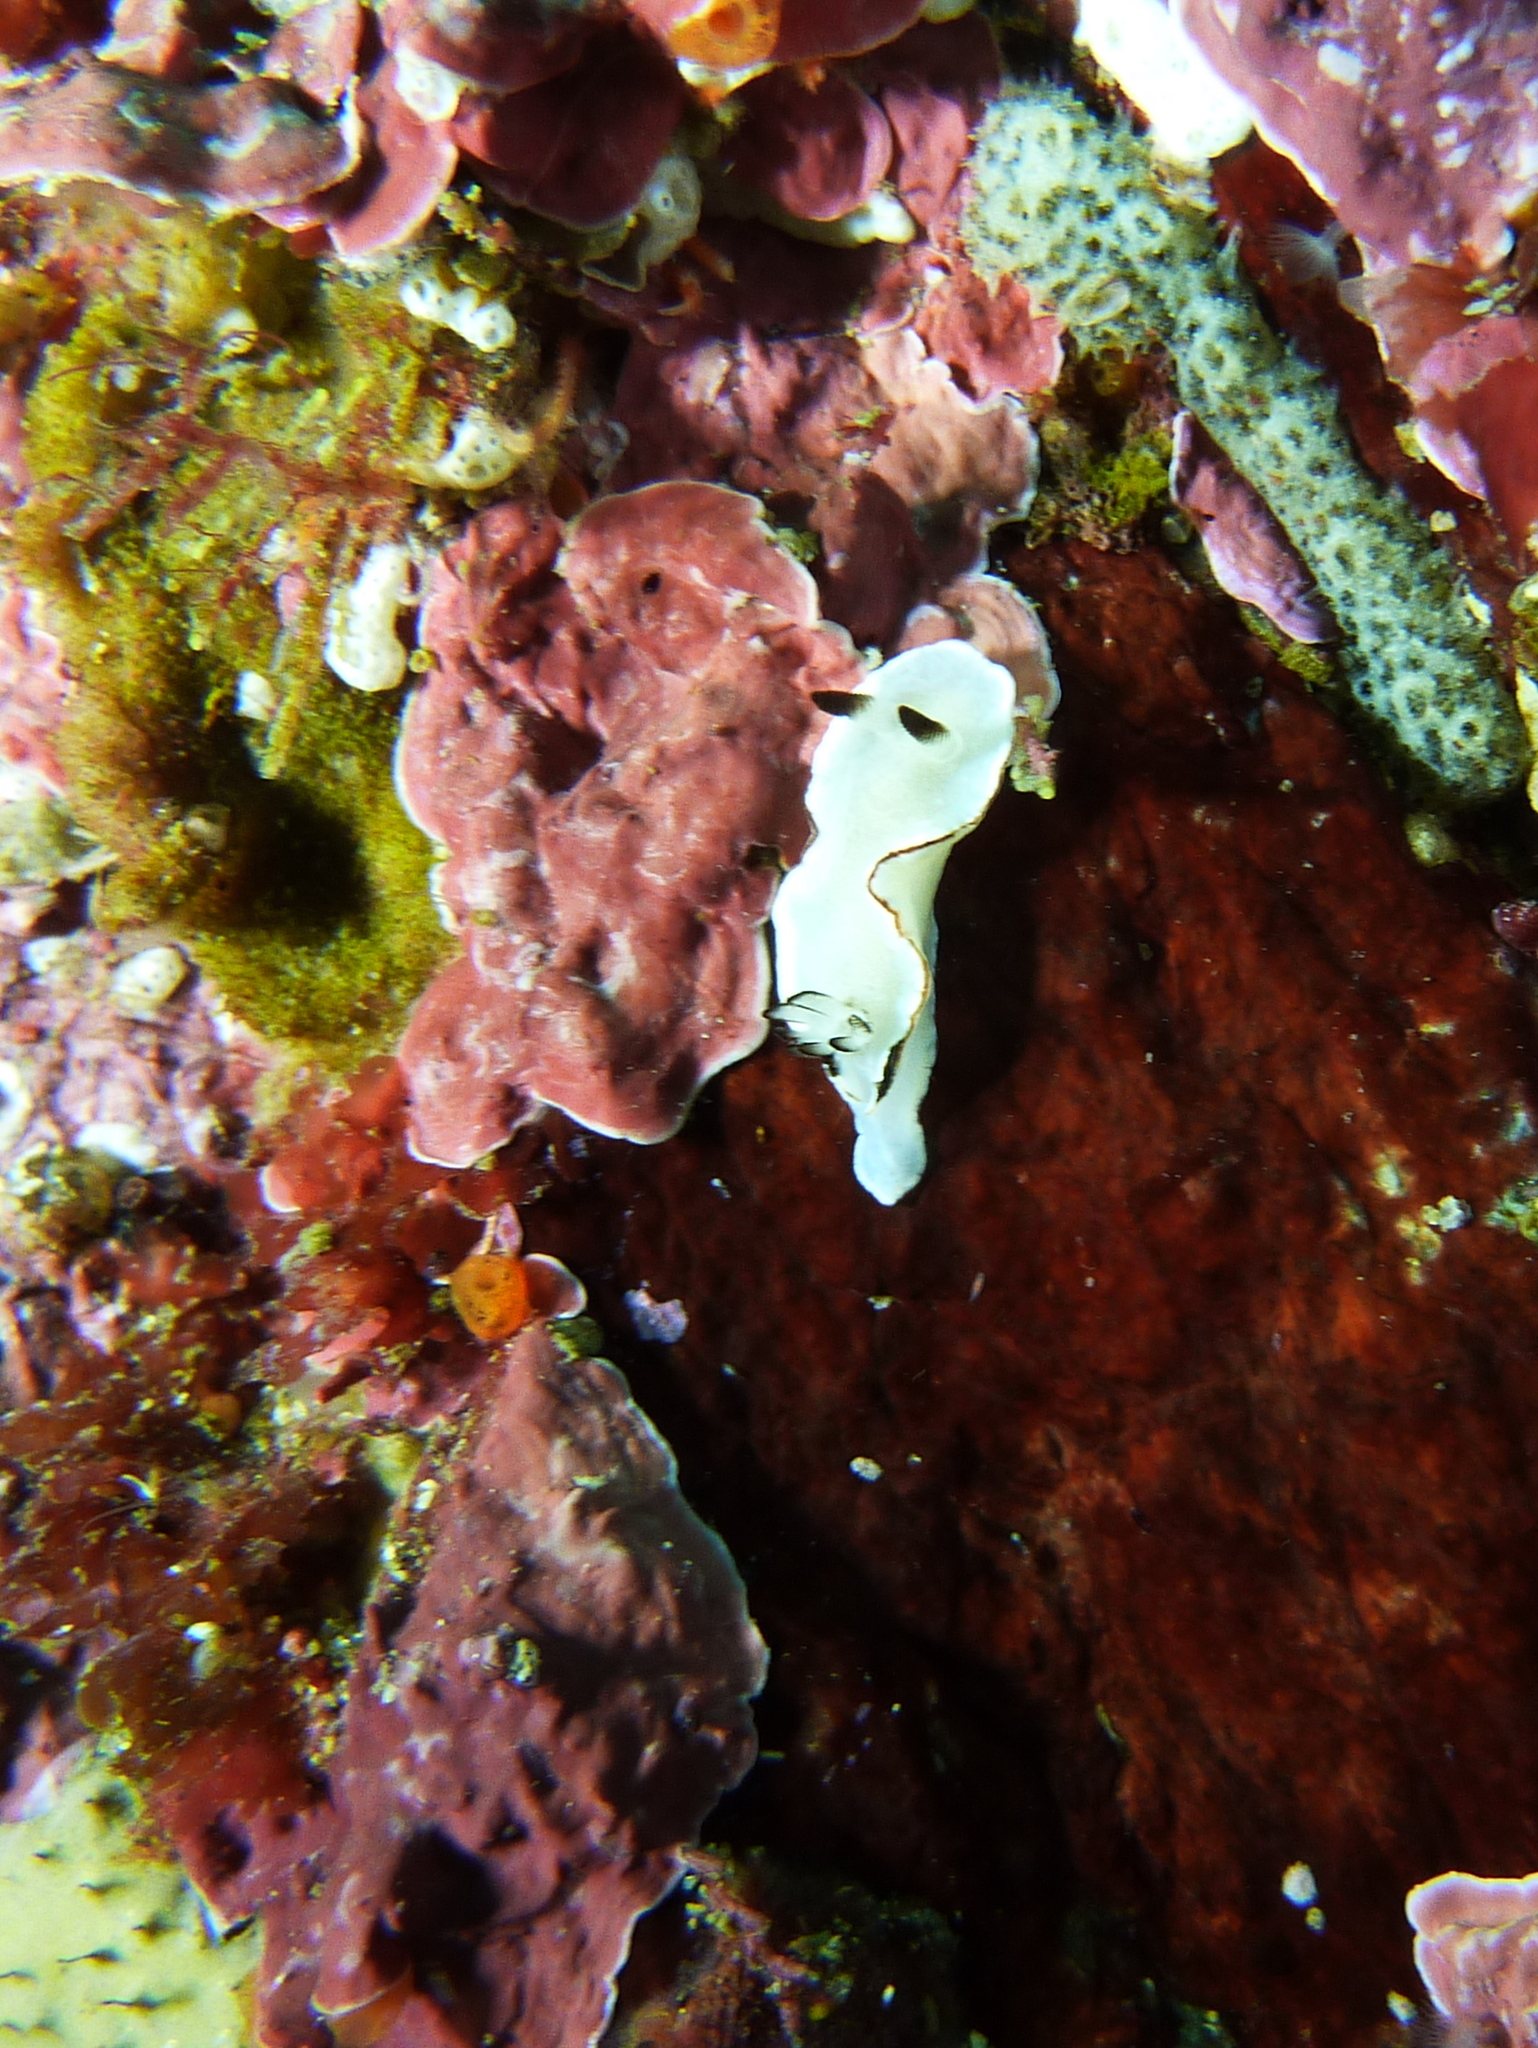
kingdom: Animalia
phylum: Mollusca
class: Gastropoda
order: Nudibranchia
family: Chromodorididae
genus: Glossodoris
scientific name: Glossodoris angasi
